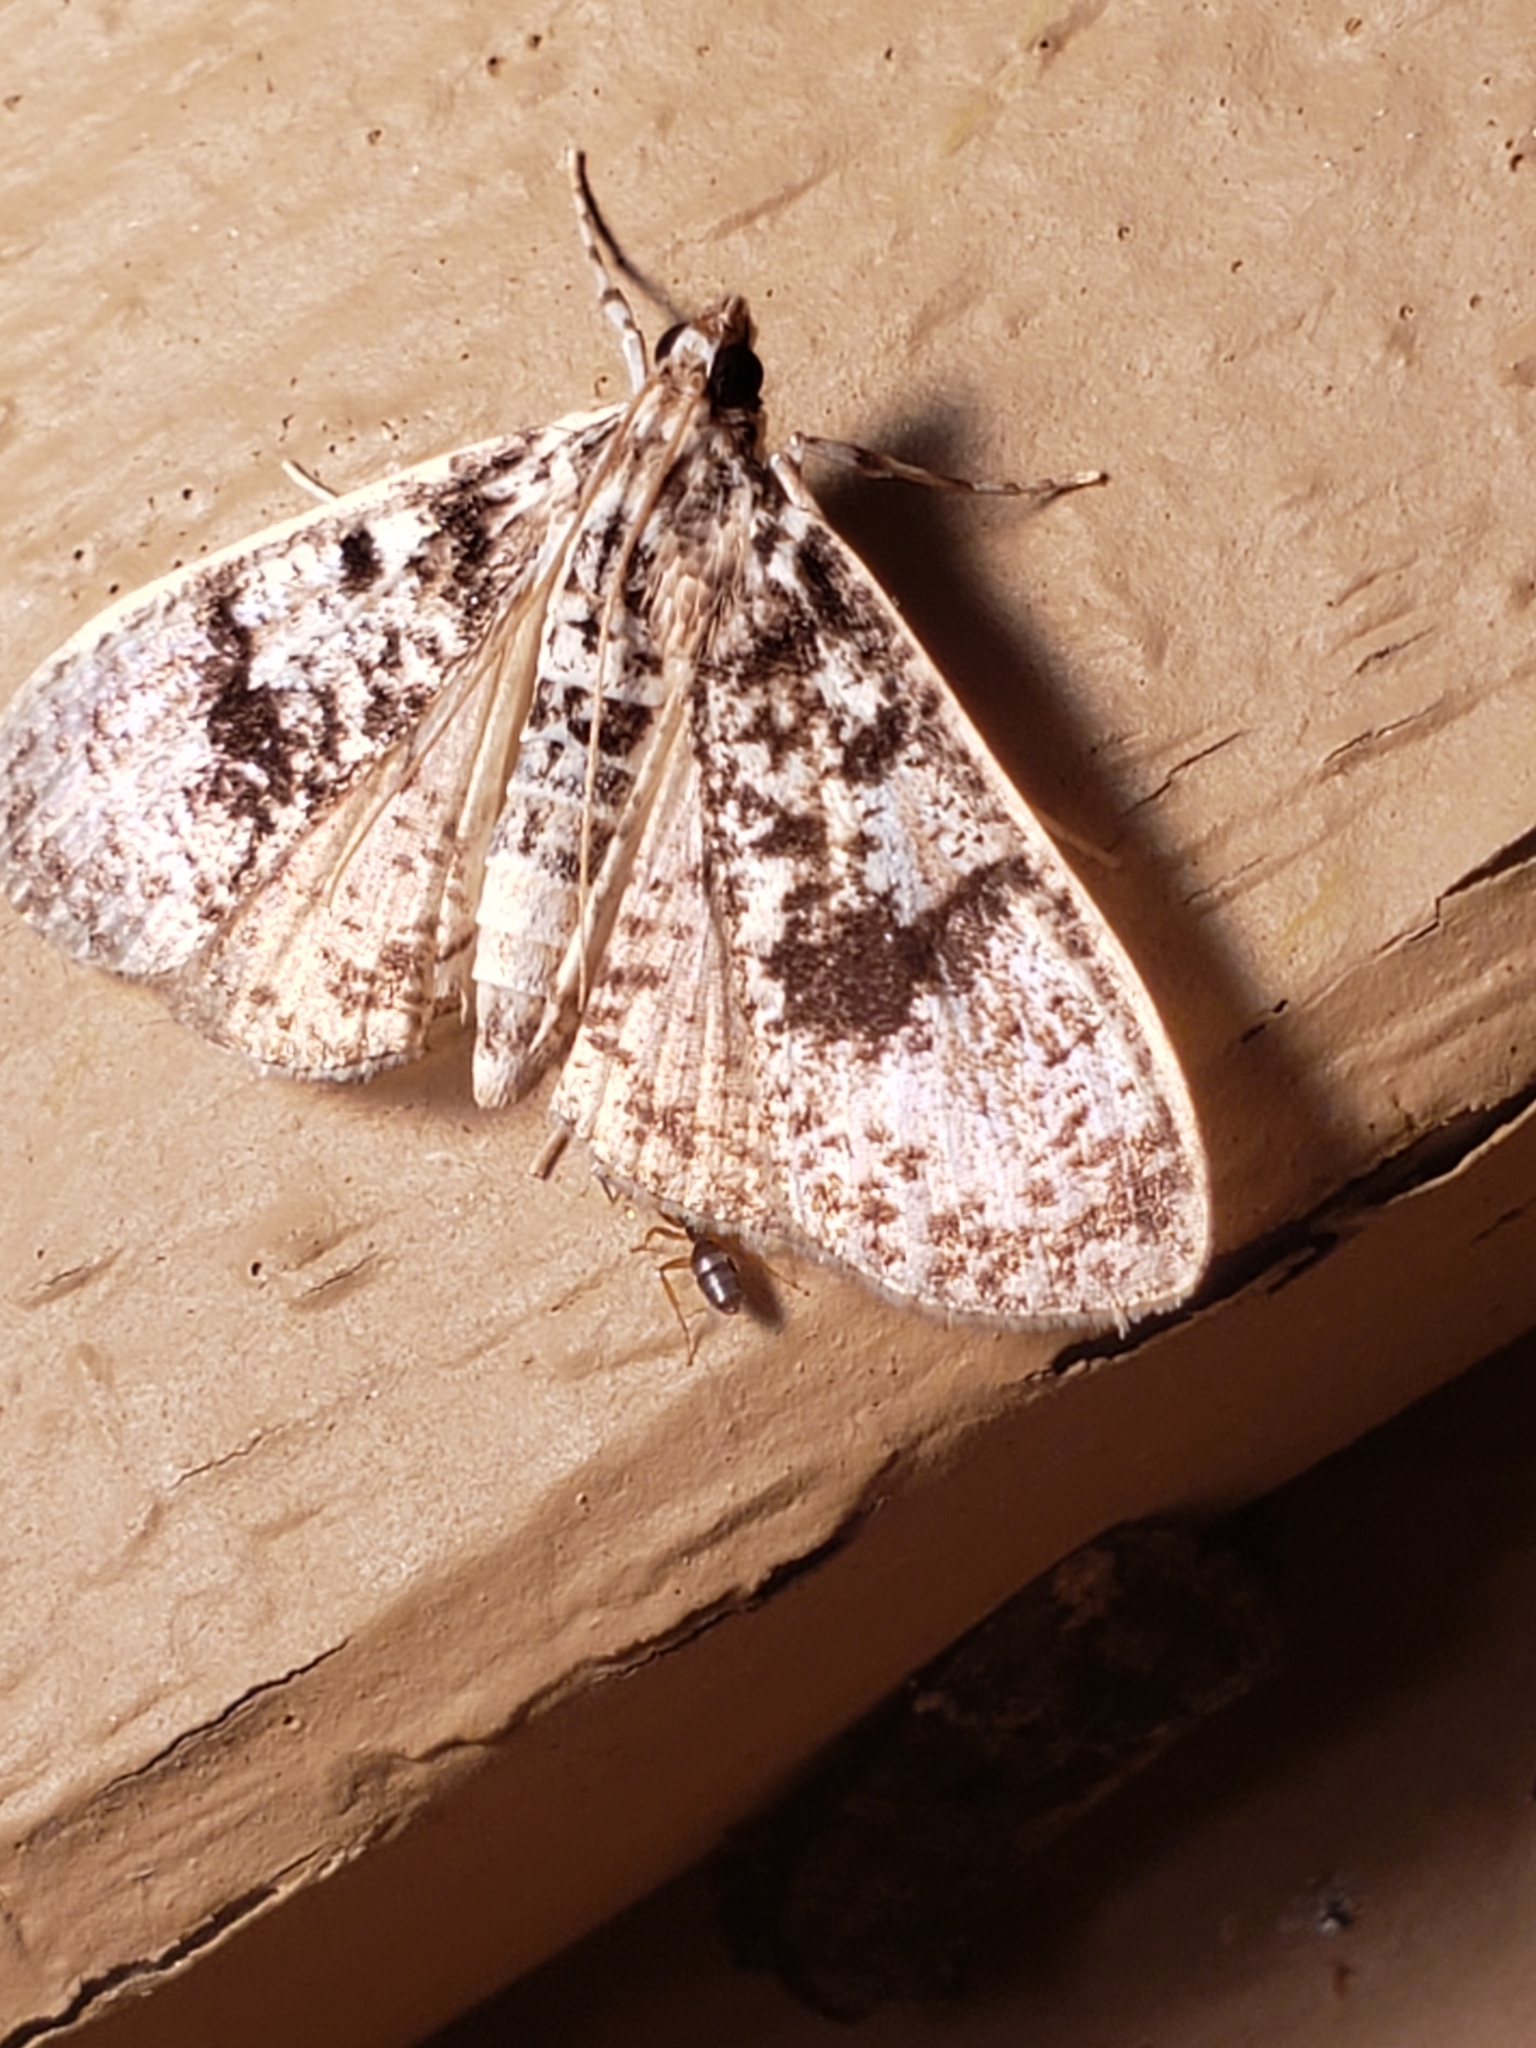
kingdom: Animalia
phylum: Arthropoda
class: Insecta
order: Lepidoptera
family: Crambidae
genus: Palpita
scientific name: Palpita magniferalis
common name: Splendid palpita moth
